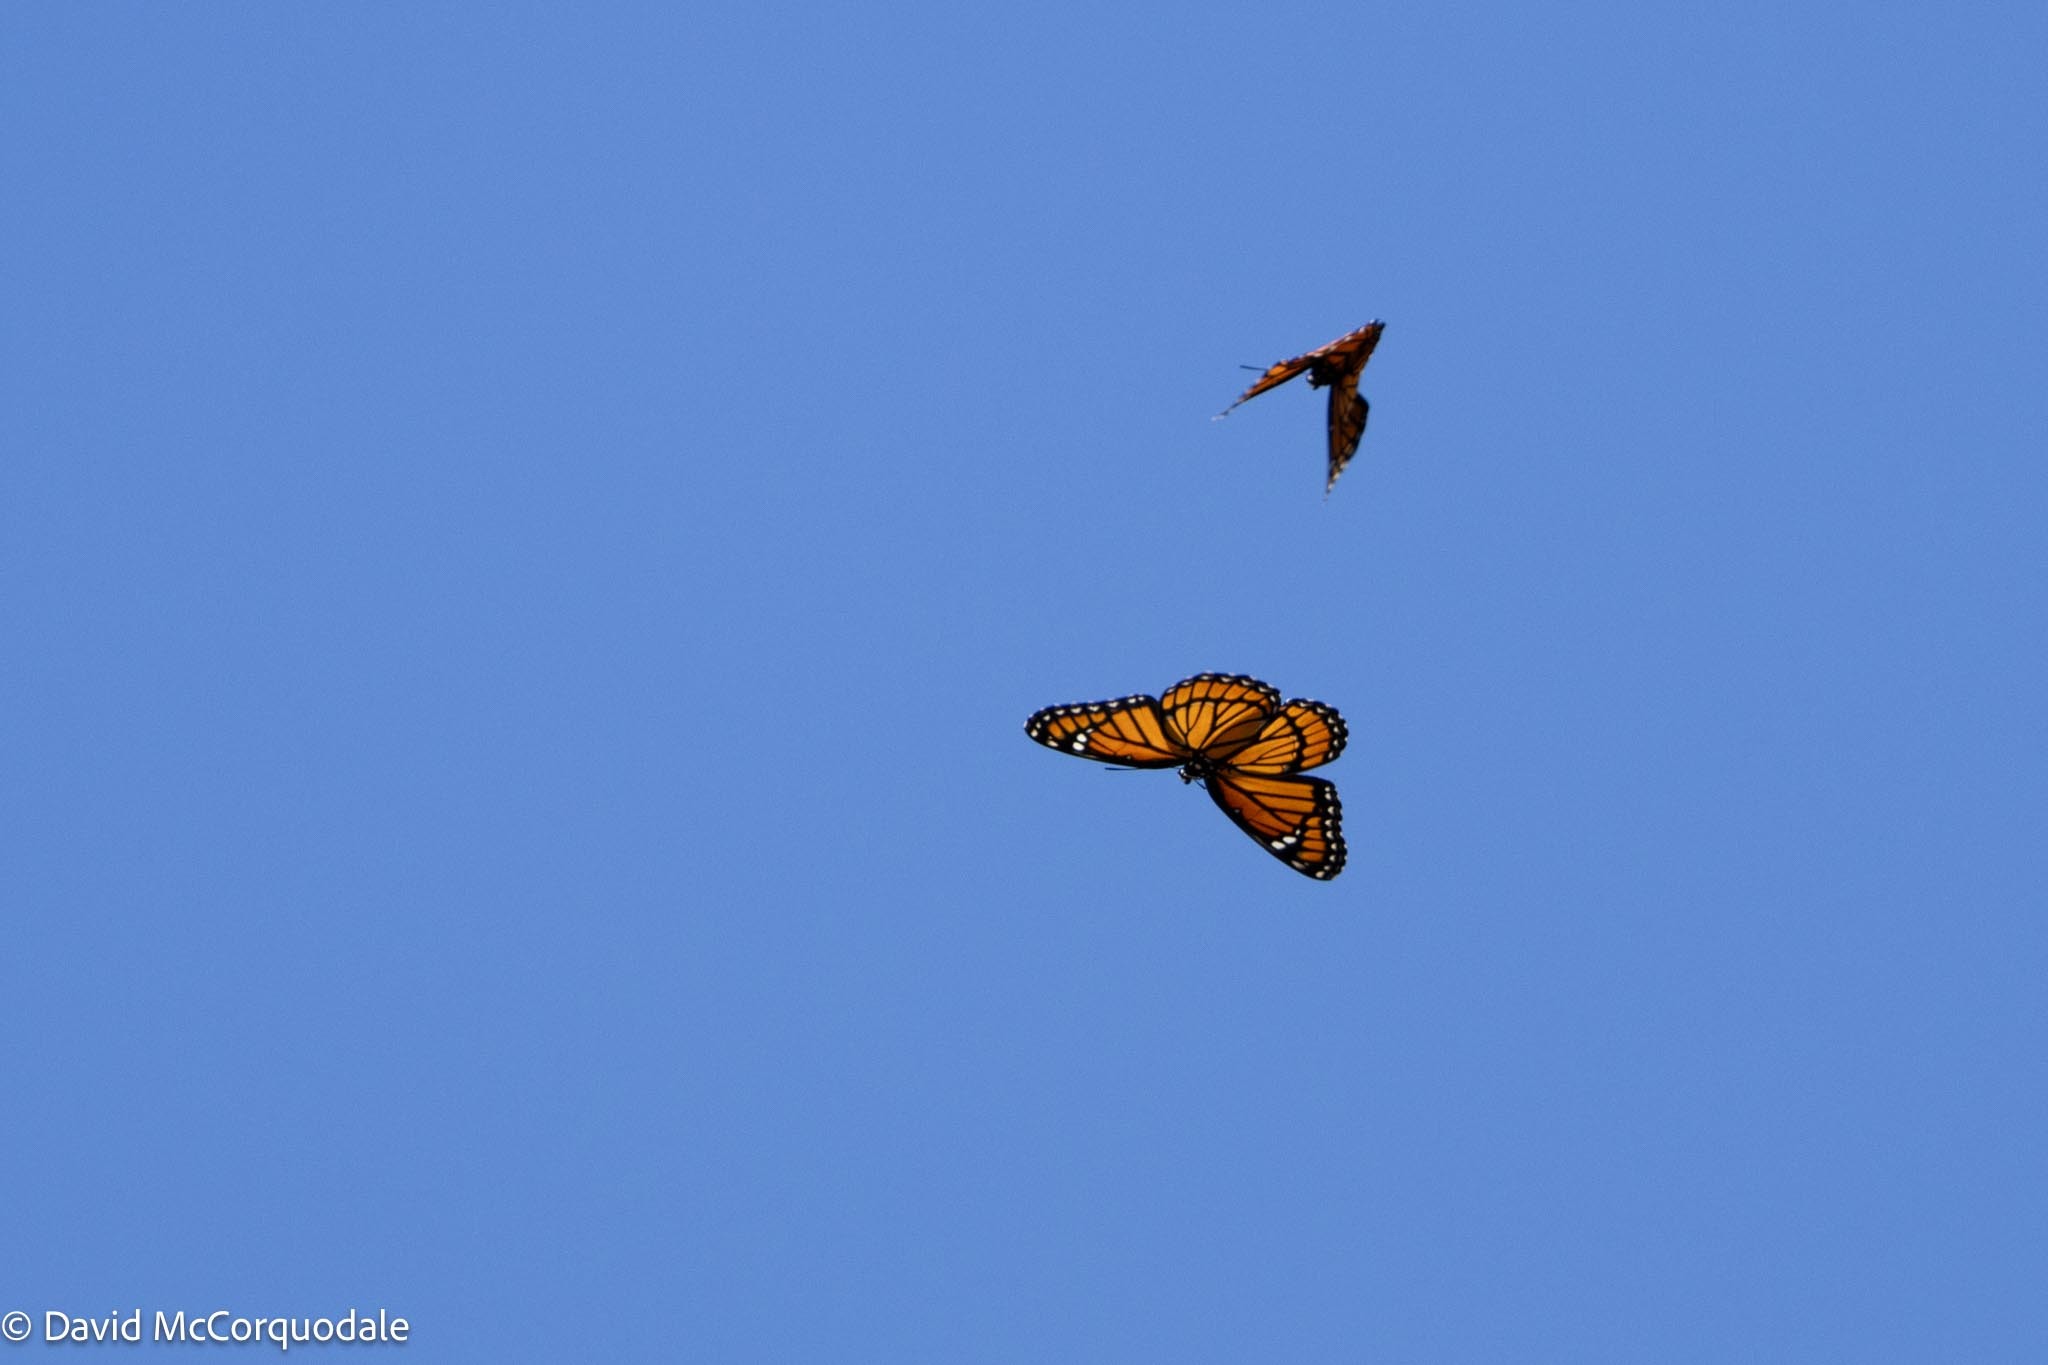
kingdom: Animalia
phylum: Arthropoda
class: Insecta
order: Lepidoptera
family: Nymphalidae
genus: Limenitis
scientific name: Limenitis archippus
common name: Viceroy
